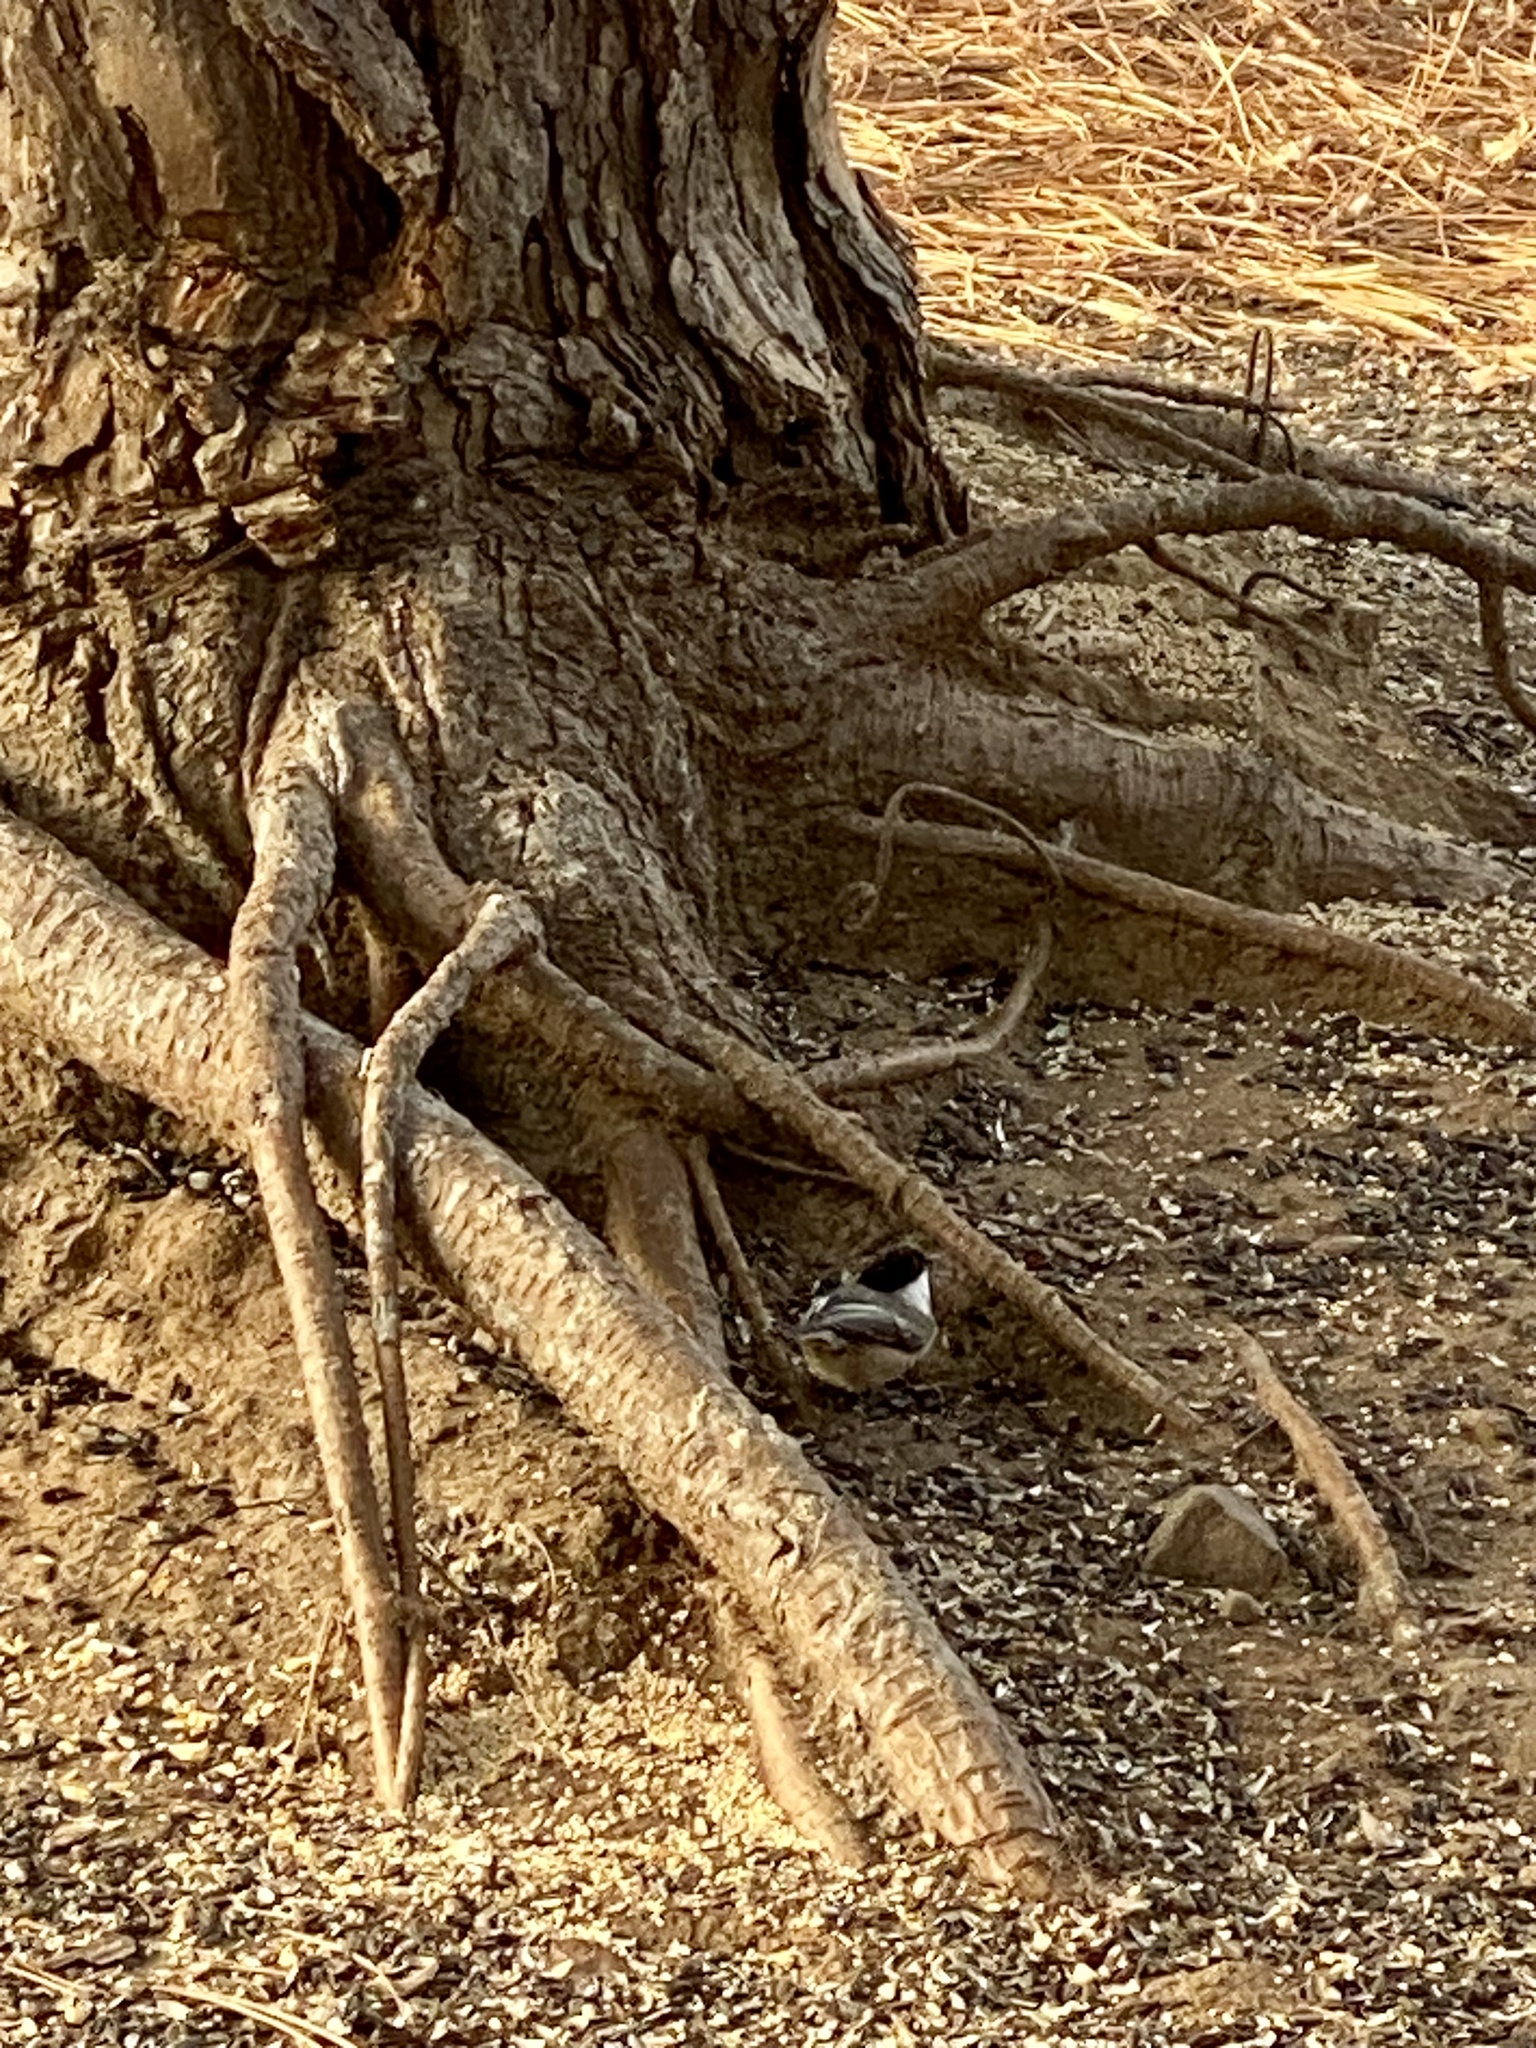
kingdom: Animalia
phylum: Chordata
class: Aves
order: Passeriformes
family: Paridae
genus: Poecile
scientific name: Poecile atricapillus
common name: Black-capped chickadee
